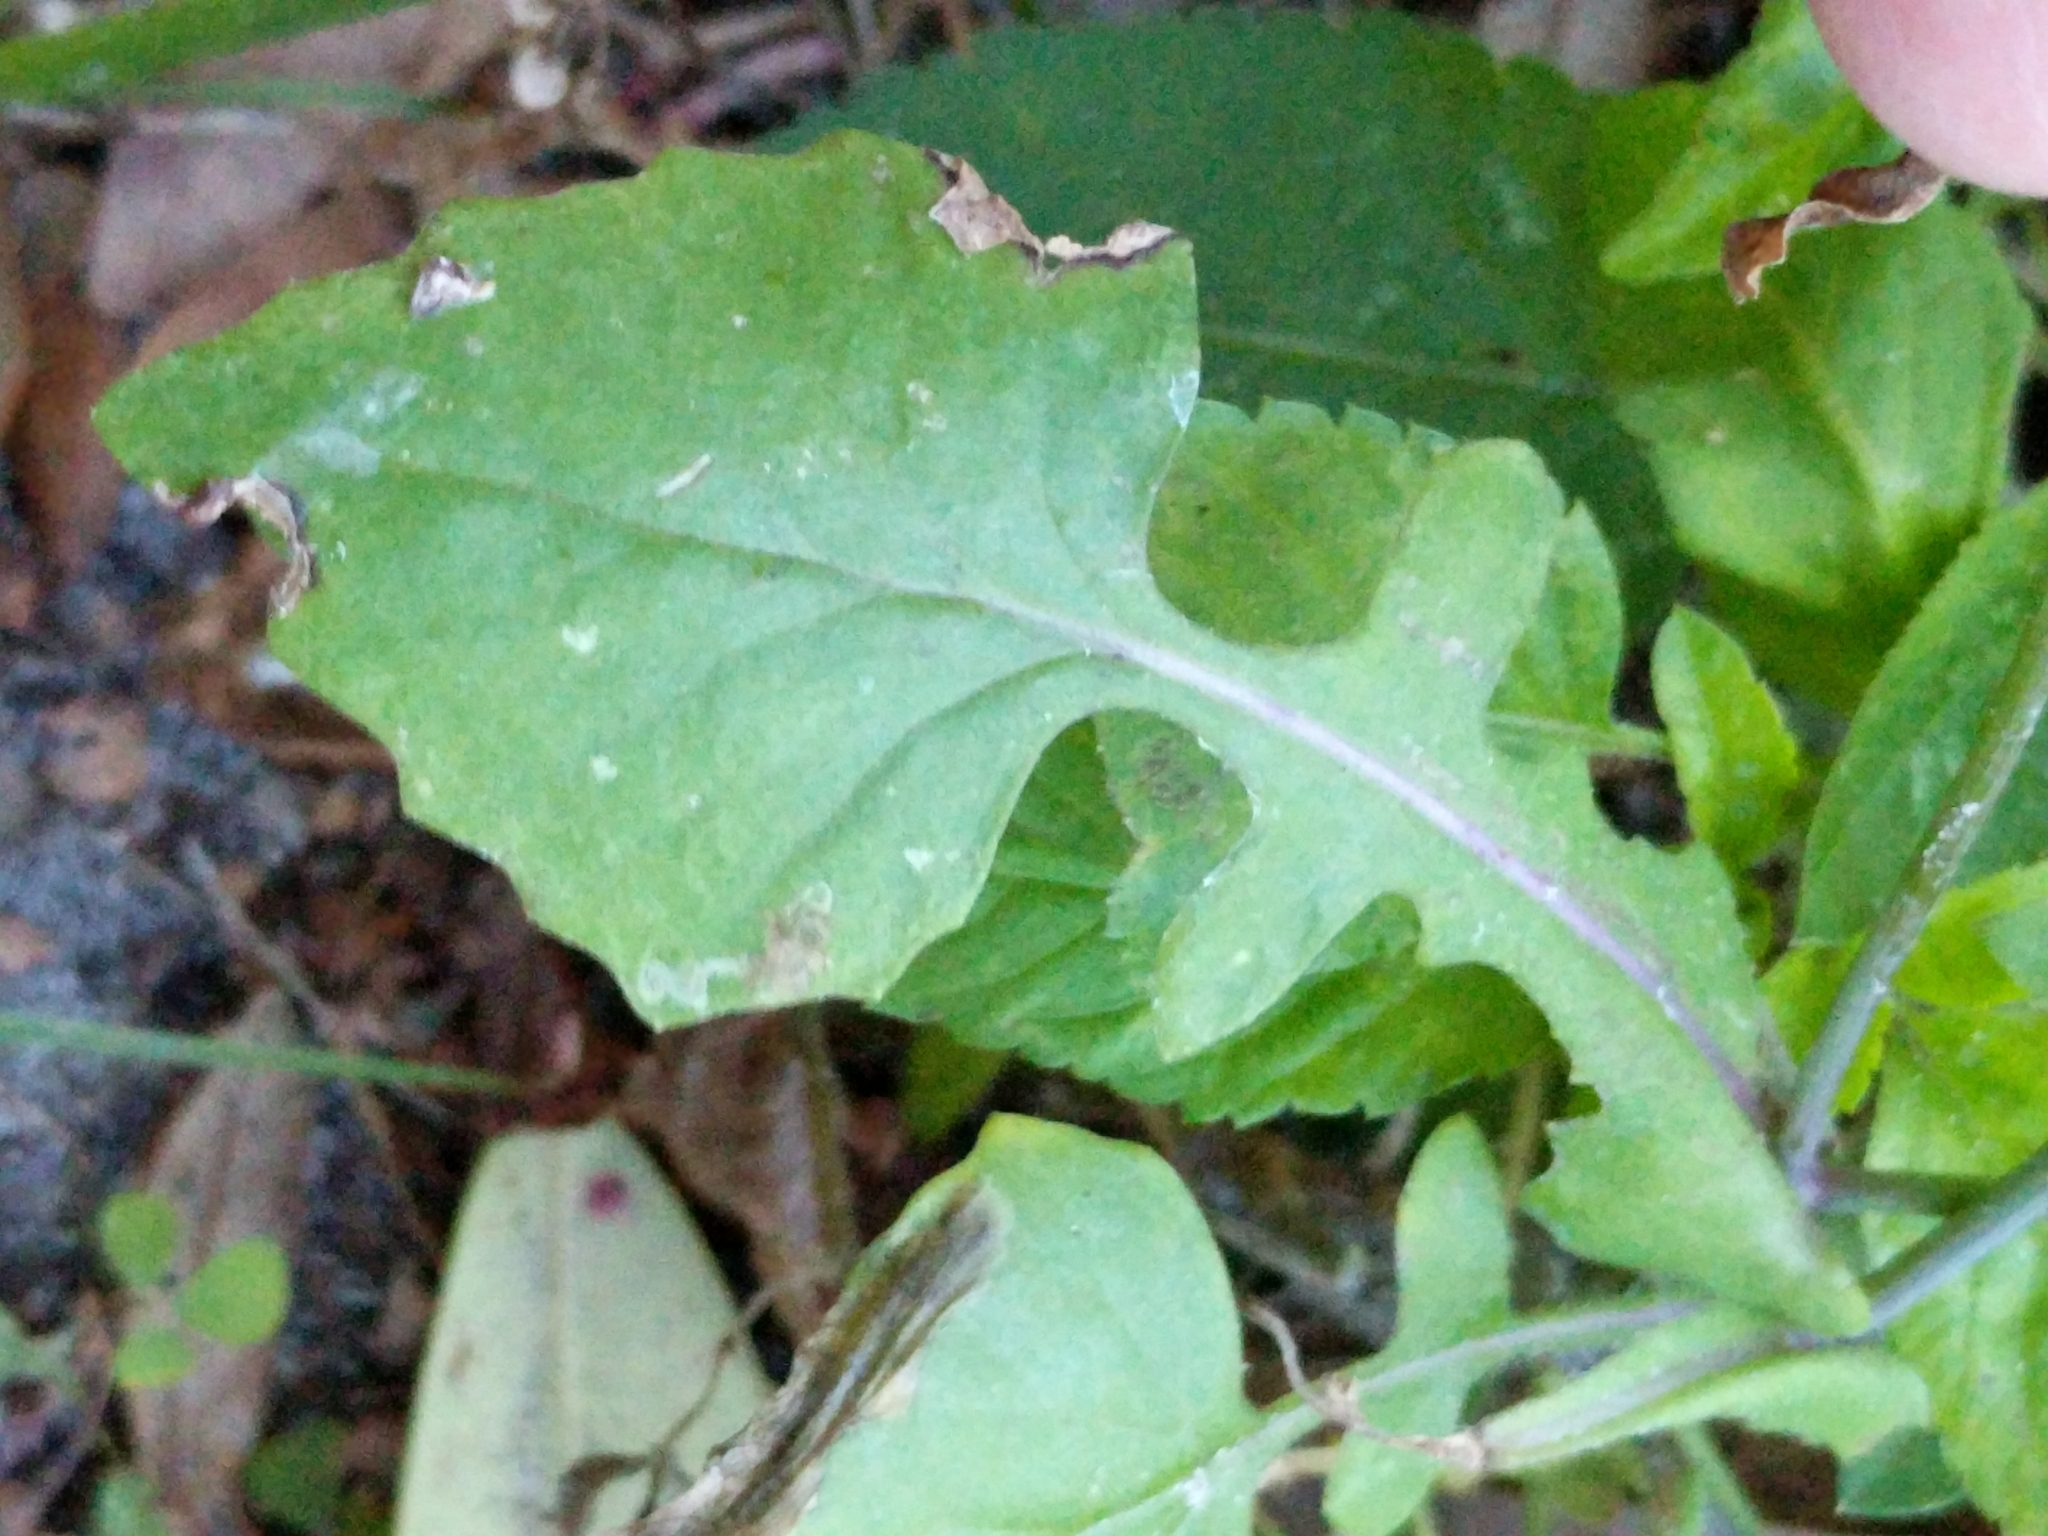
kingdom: Plantae
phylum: Tracheophyta
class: Magnoliopsida
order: Asterales
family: Asteraceae
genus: Emilia
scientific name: Emilia sonchifolia
